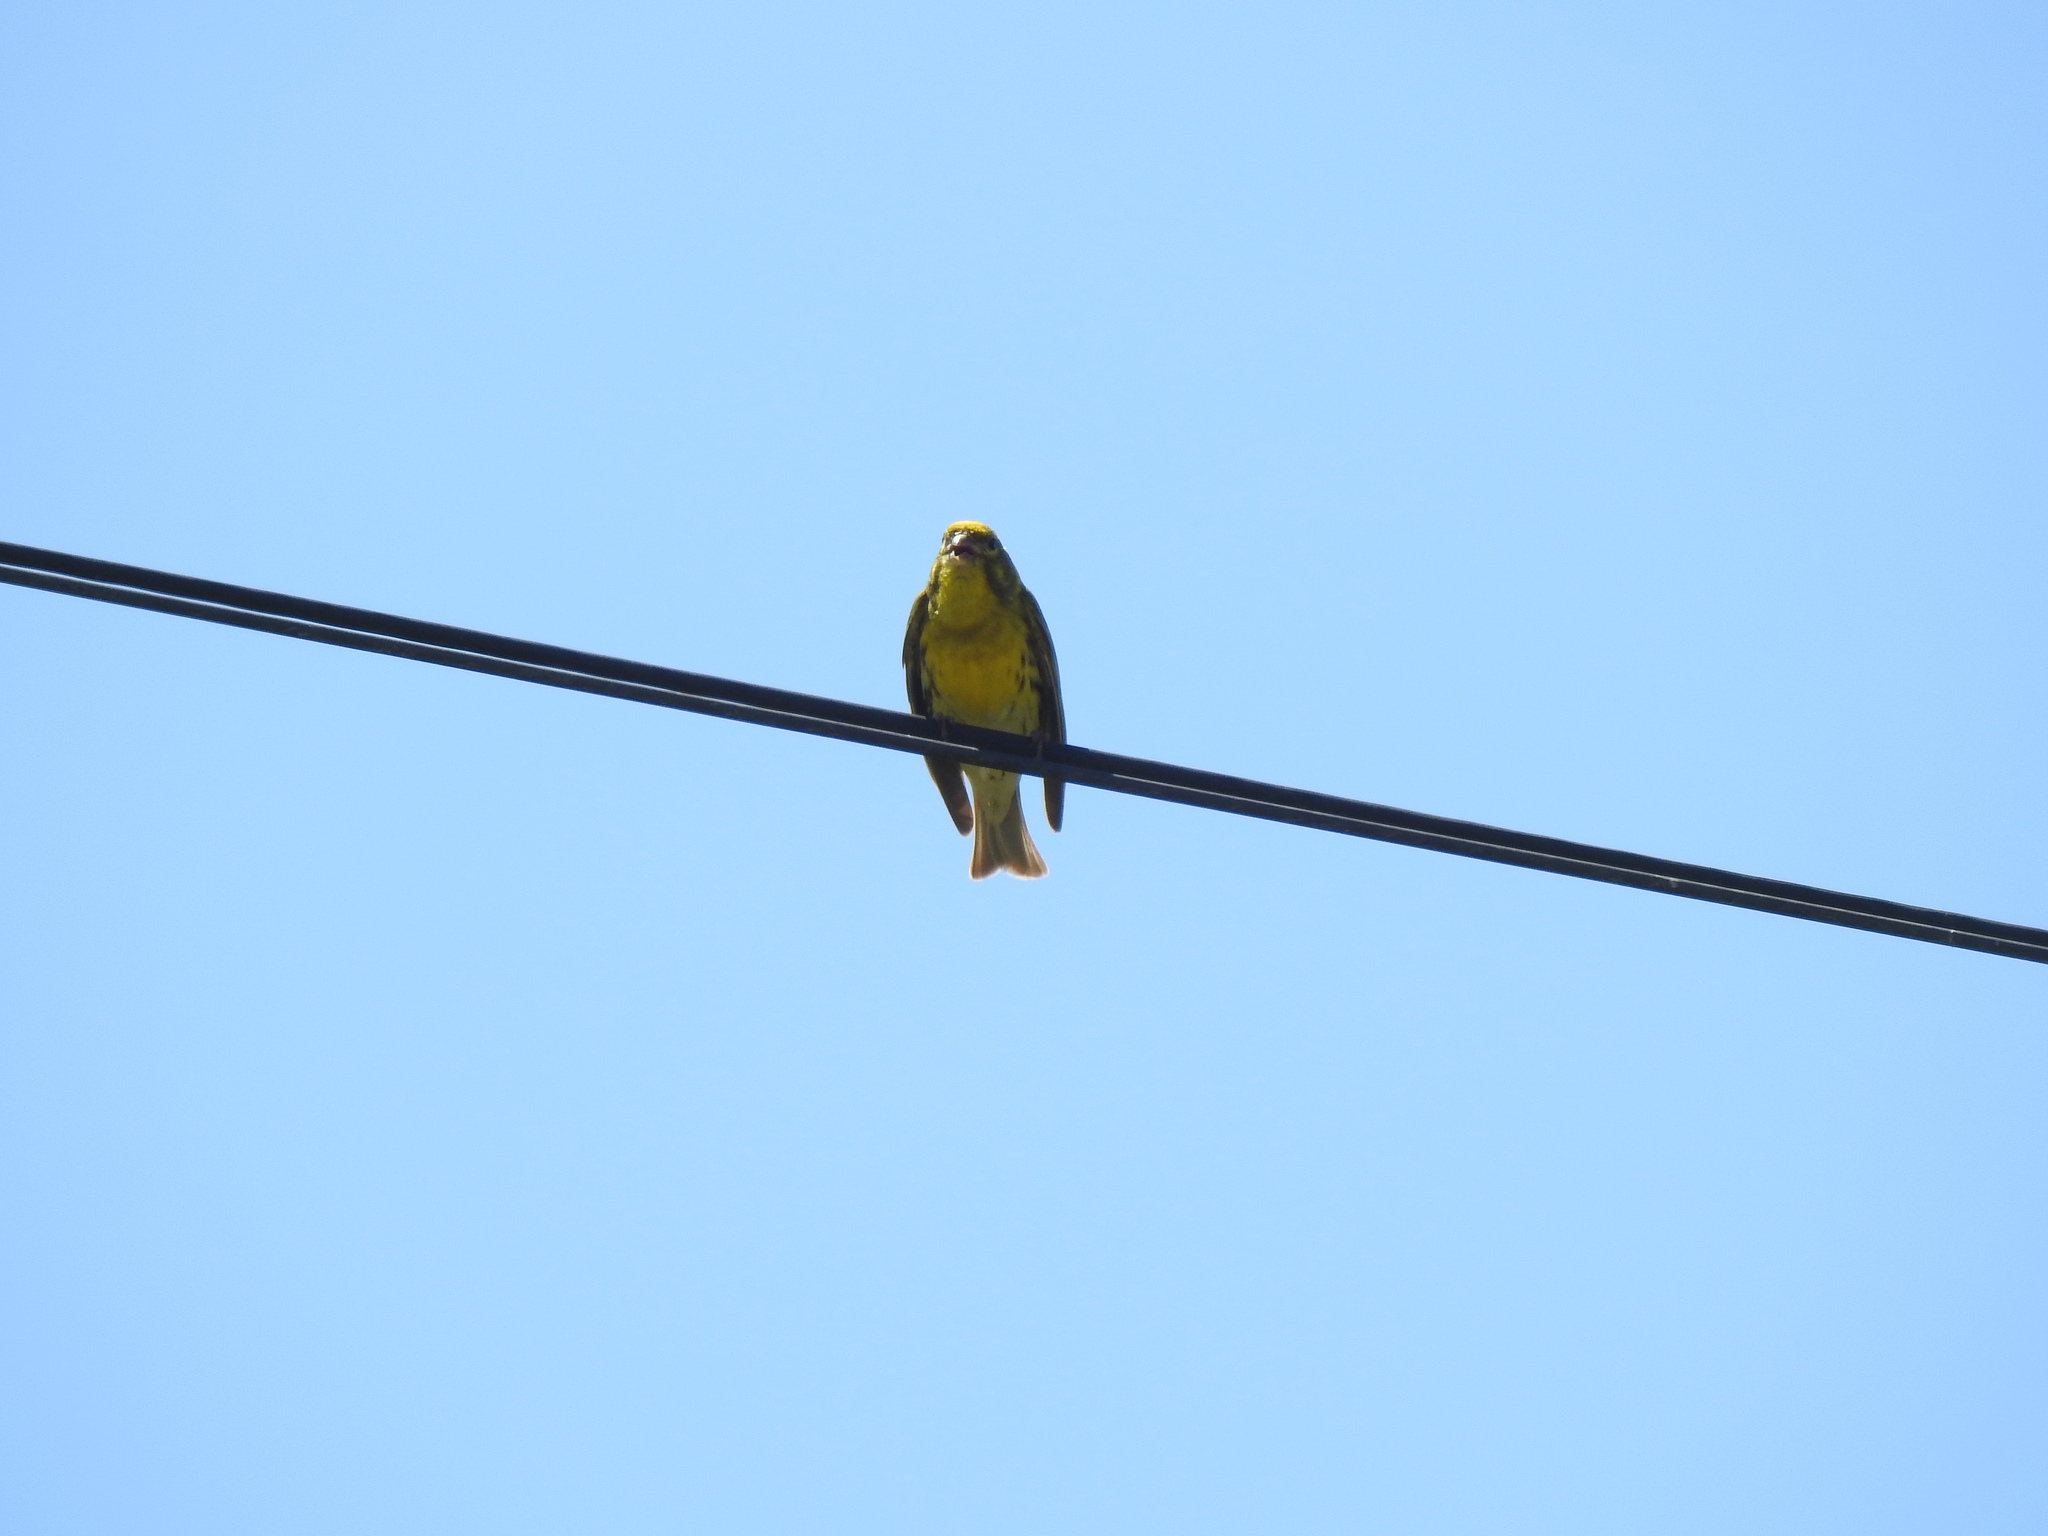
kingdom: Animalia
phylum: Chordata
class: Aves
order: Passeriformes
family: Fringillidae
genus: Serinus
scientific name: Serinus serinus
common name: European serin
